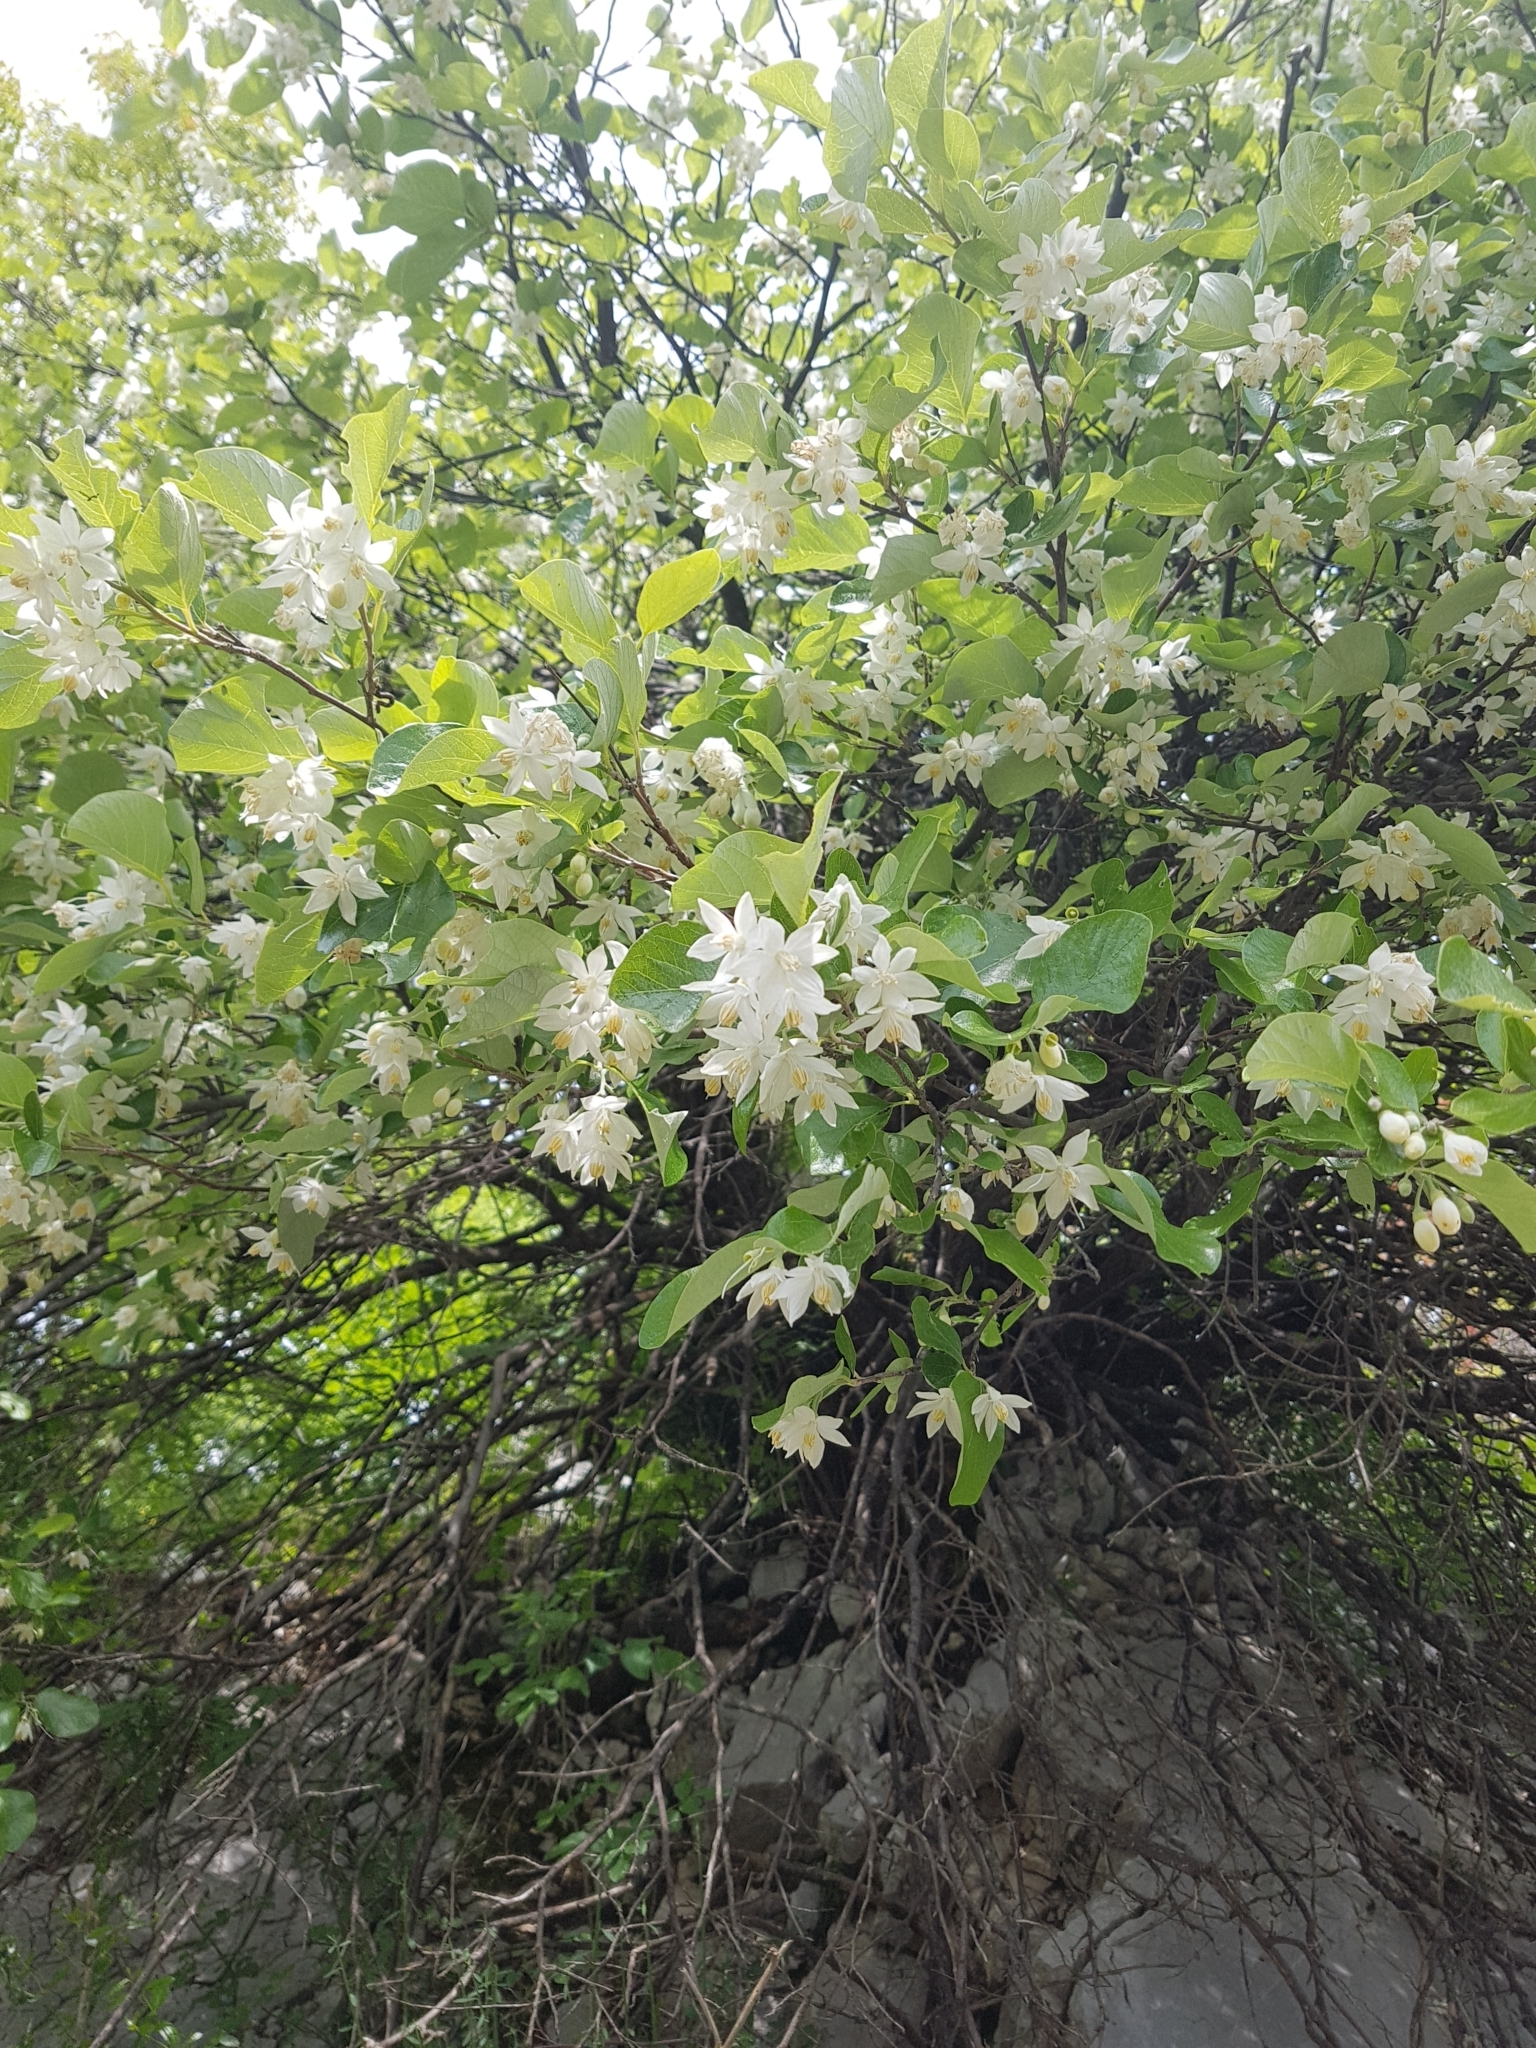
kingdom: Plantae
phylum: Tracheophyta
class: Magnoliopsida
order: Ericales
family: Styracaceae
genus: Styrax
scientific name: Styrax officinalis
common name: Storax
